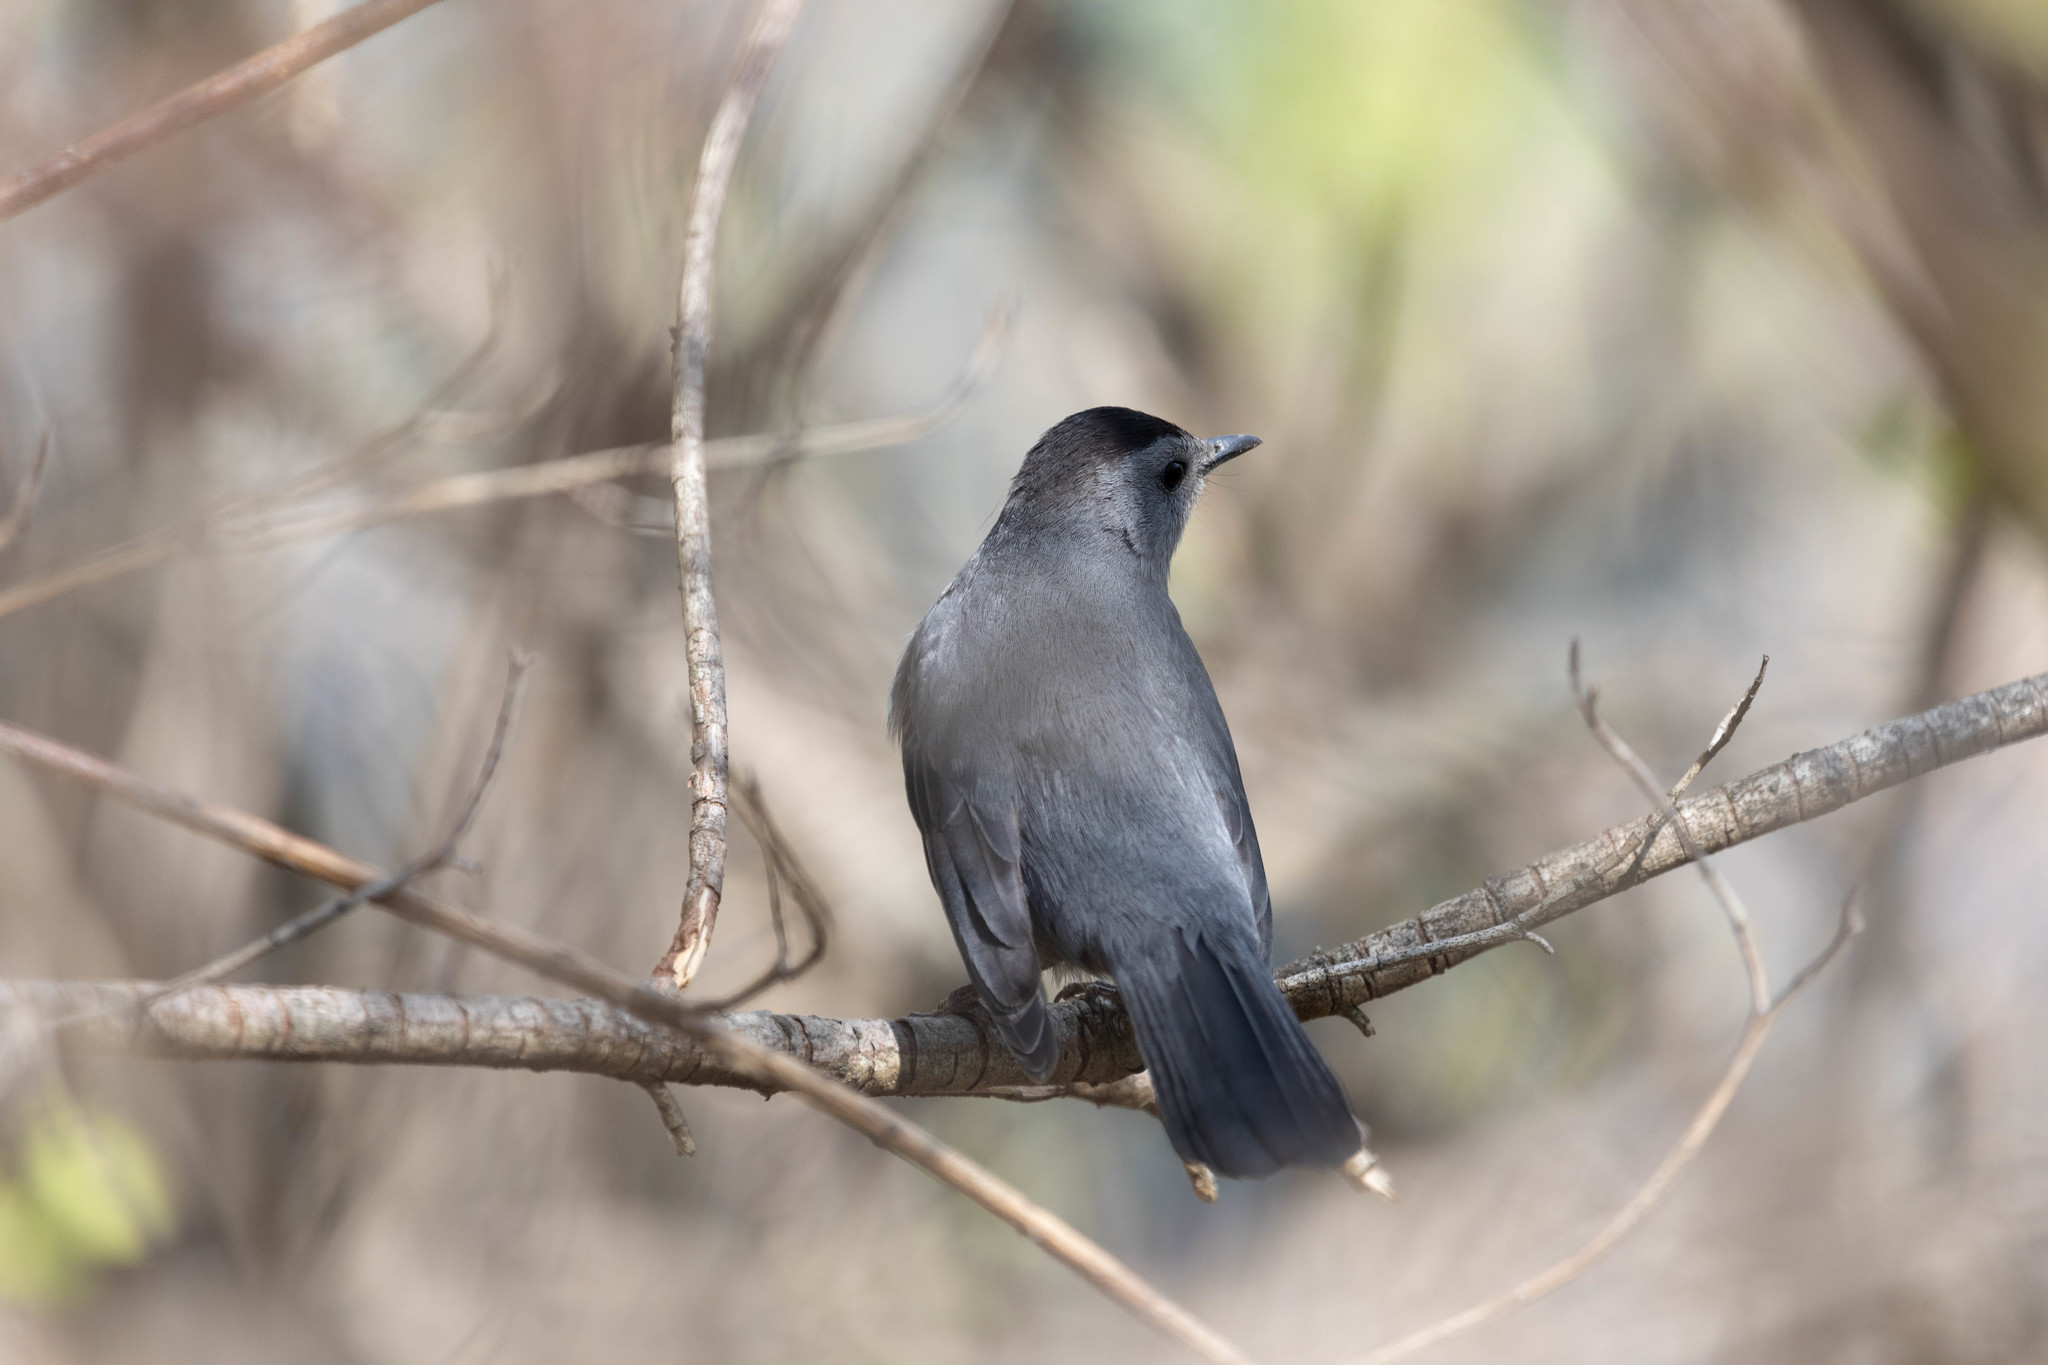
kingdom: Animalia
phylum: Chordata
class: Aves
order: Passeriformes
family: Mimidae
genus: Dumetella
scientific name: Dumetella carolinensis
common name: Gray catbird
